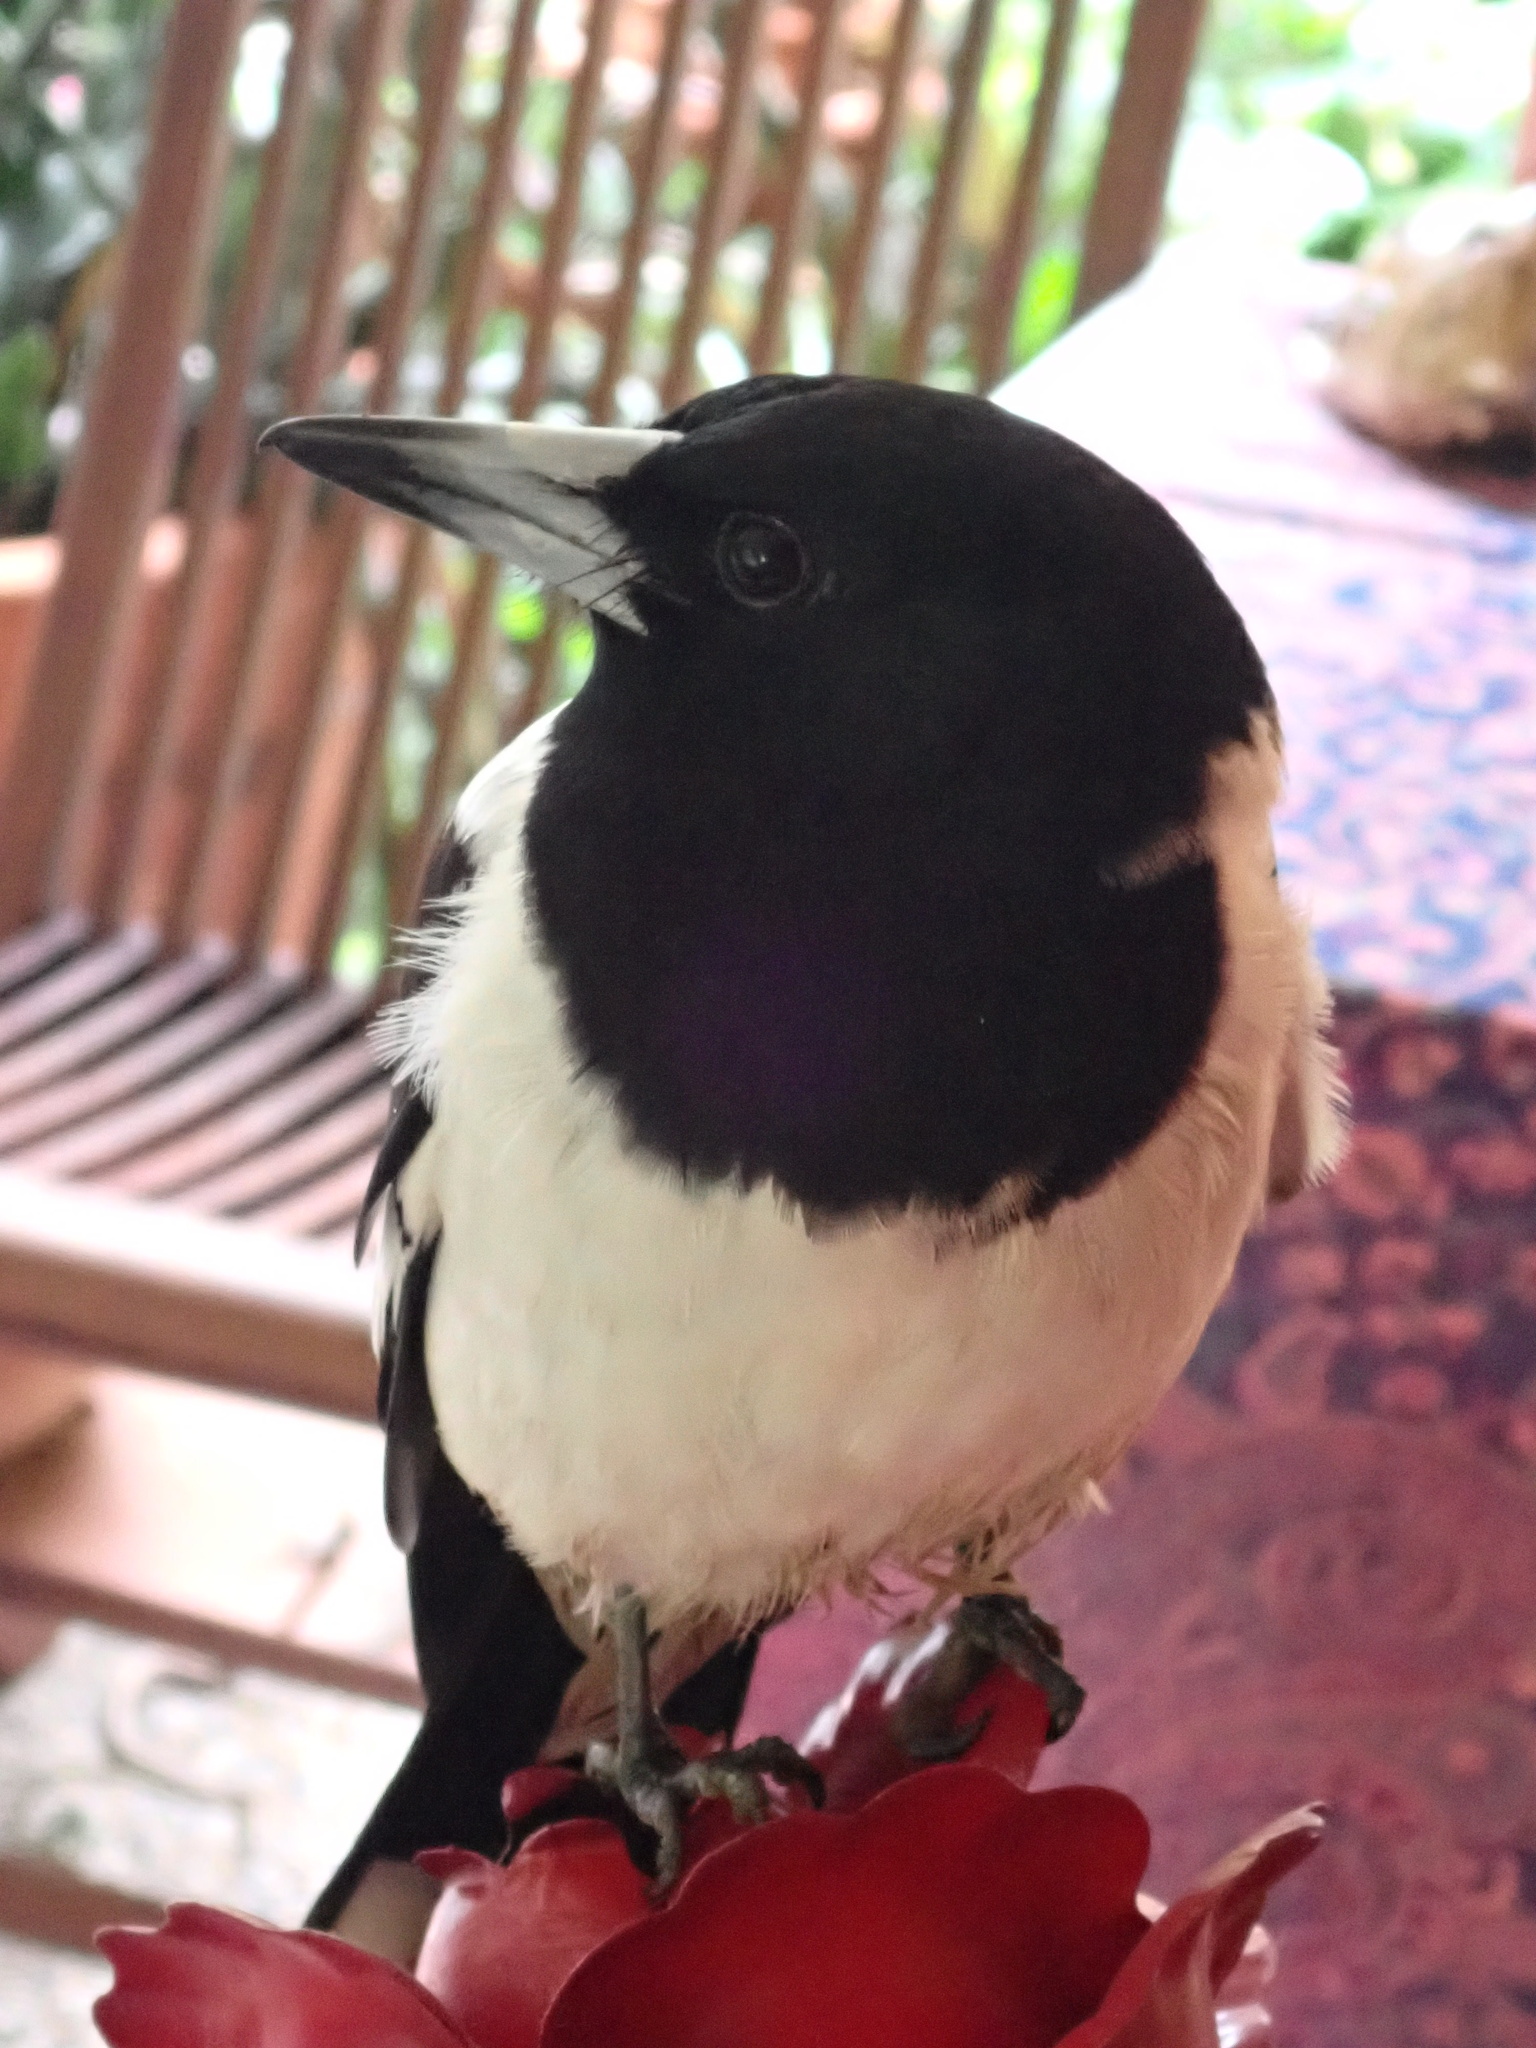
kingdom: Animalia
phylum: Chordata
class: Aves
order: Passeriformes
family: Cracticidae
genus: Cracticus
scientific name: Cracticus nigrogularis
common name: Pied butcherbird
